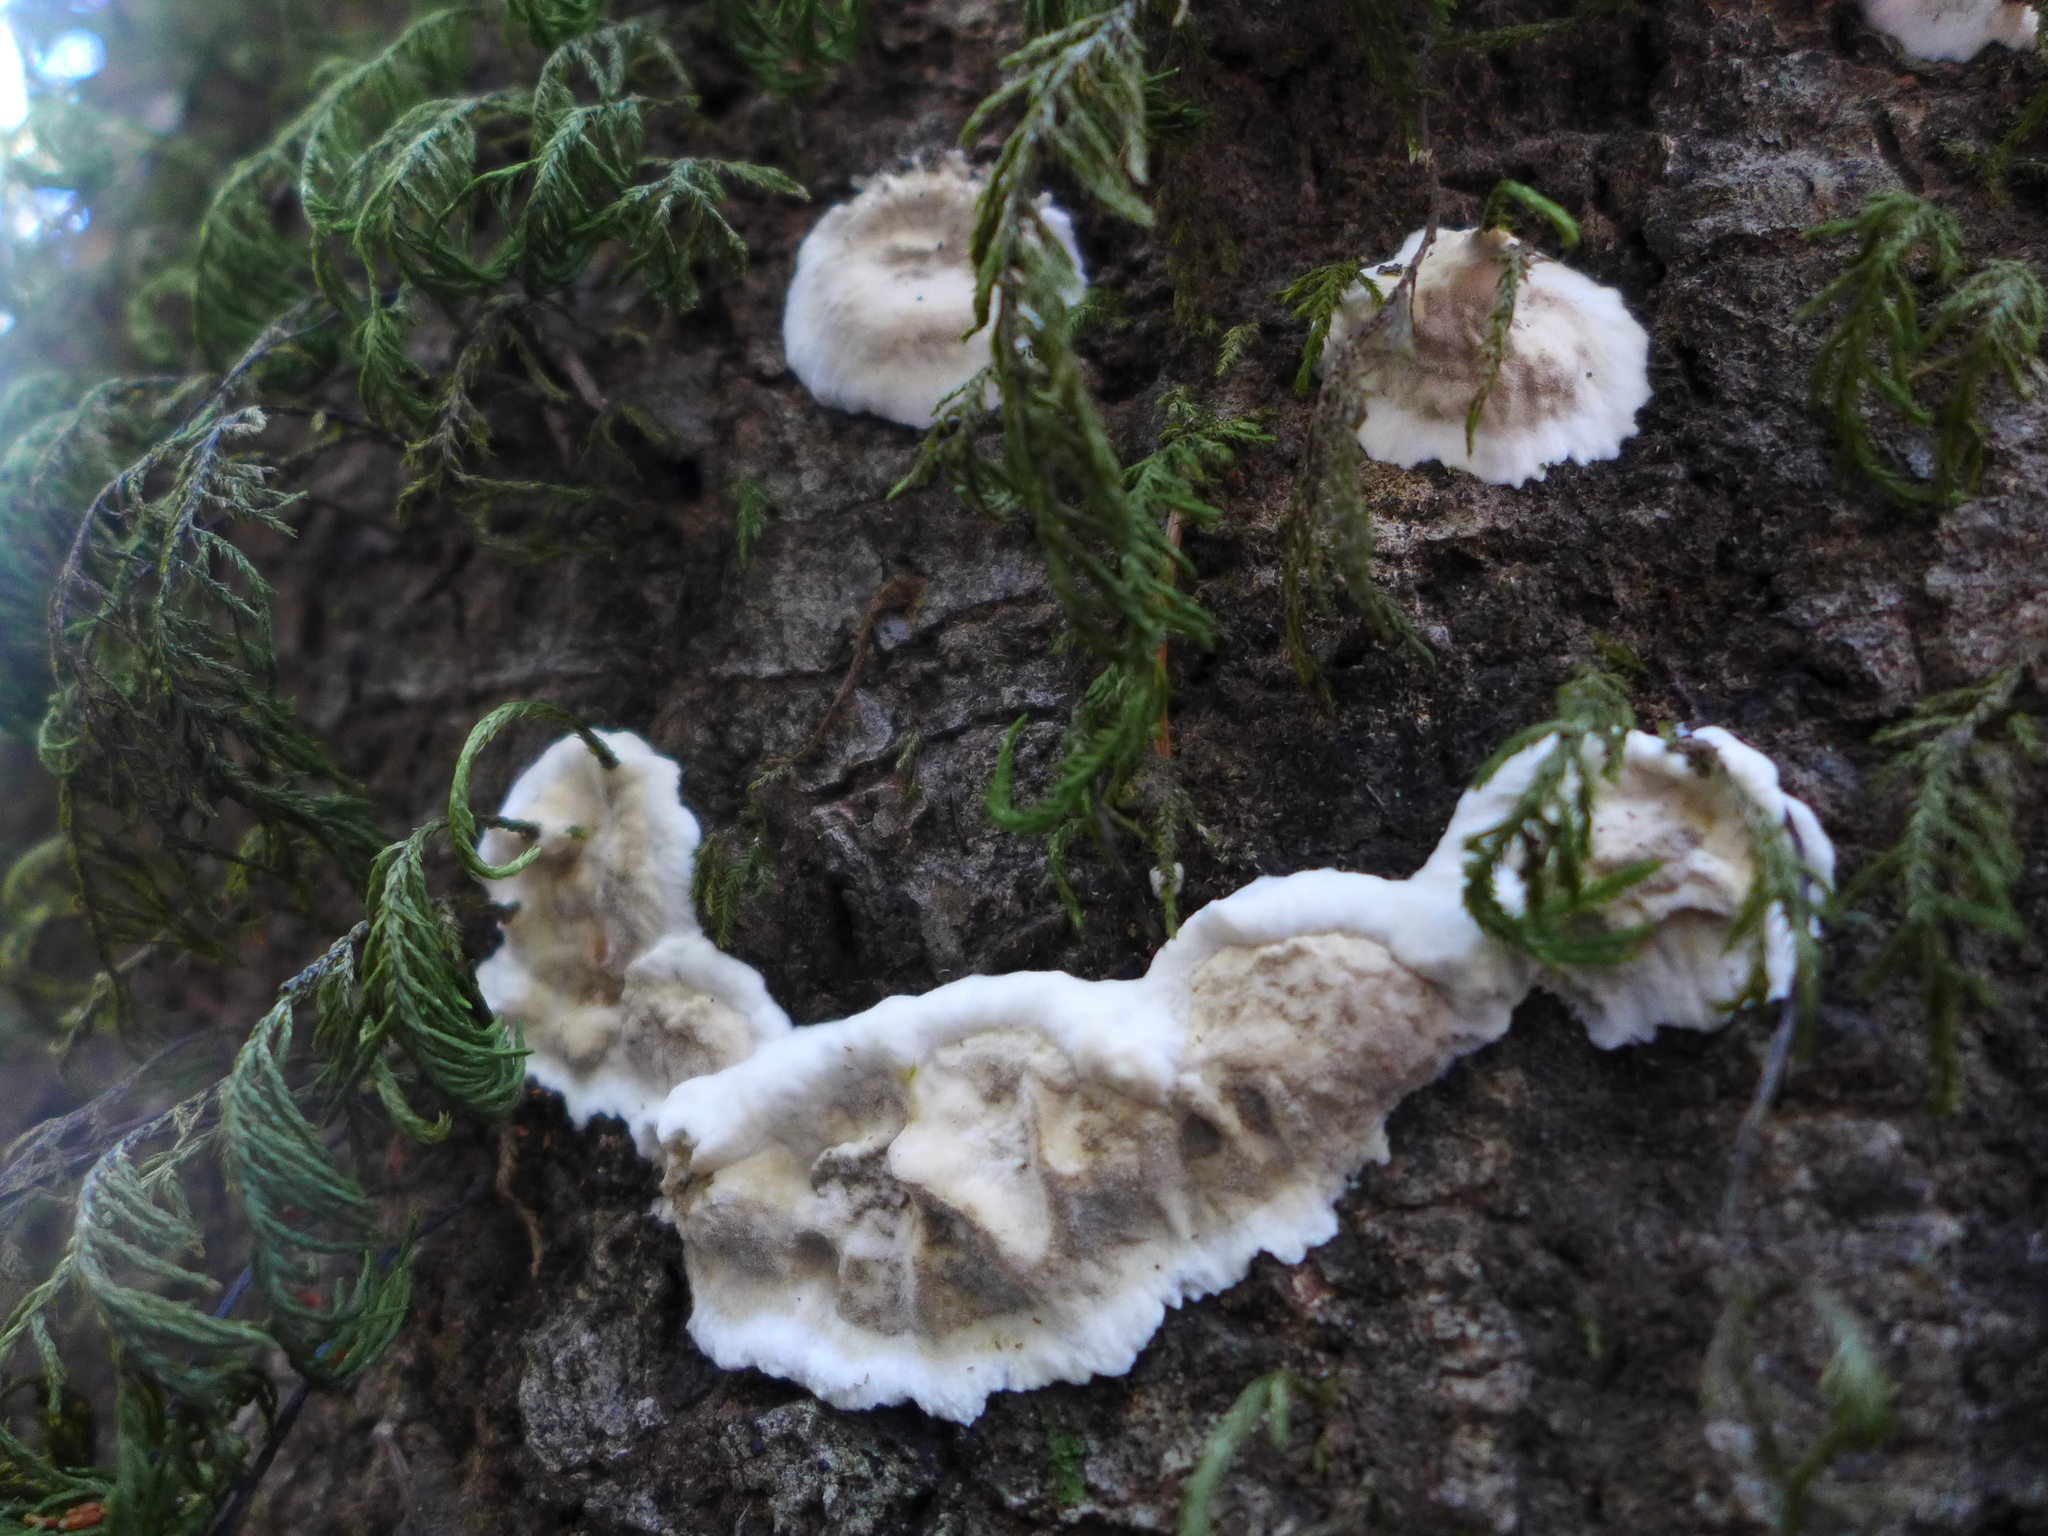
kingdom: Fungi
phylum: Basidiomycota
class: Agaricomycetes
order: Russulales
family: Stereaceae
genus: Stereum
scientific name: Stereum ochraceoflavum
